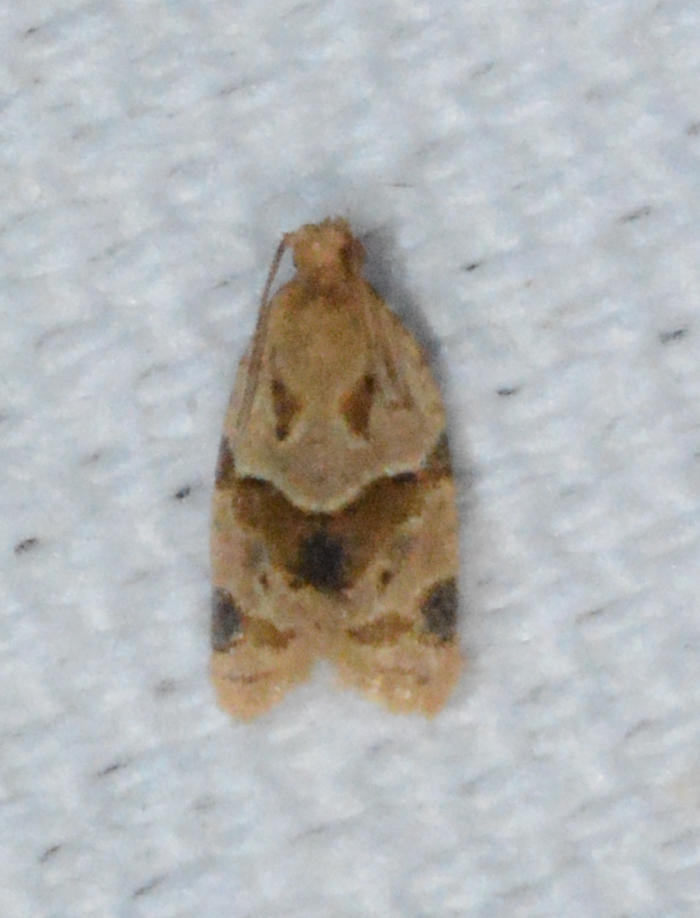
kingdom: Animalia
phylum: Arthropoda
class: Insecta
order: Lepidoptera
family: Tortricidae
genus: Clepsis
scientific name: Clepsis peritana
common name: Garden tortrix
